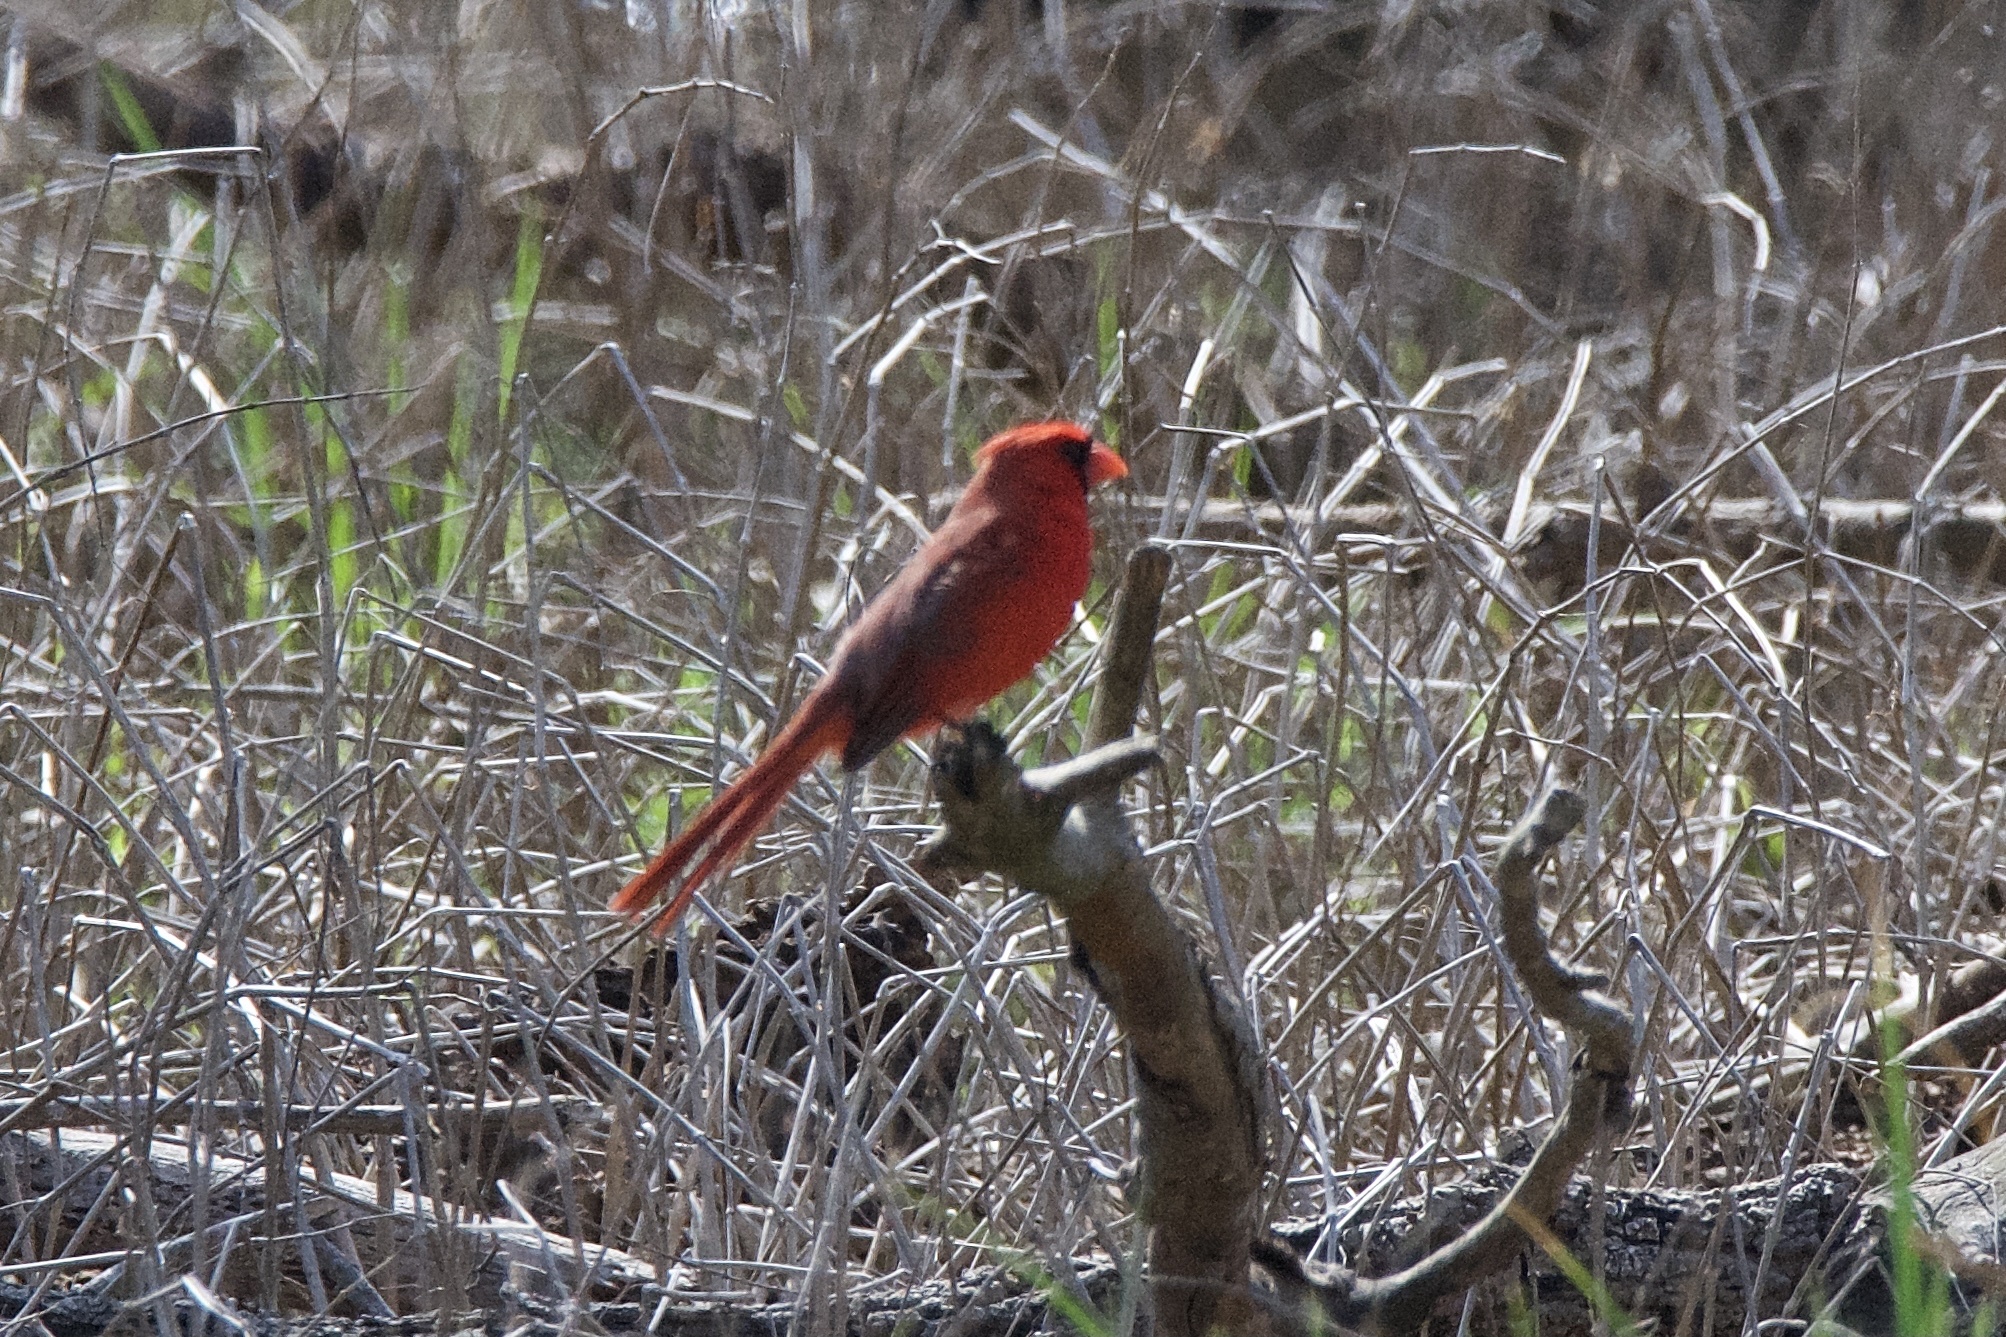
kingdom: Animalia
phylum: Chordata
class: Aves
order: Passeriformes
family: Cardinalidae
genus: Cardinalis
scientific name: Cardinalis cardinalis
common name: Northern cardinal
